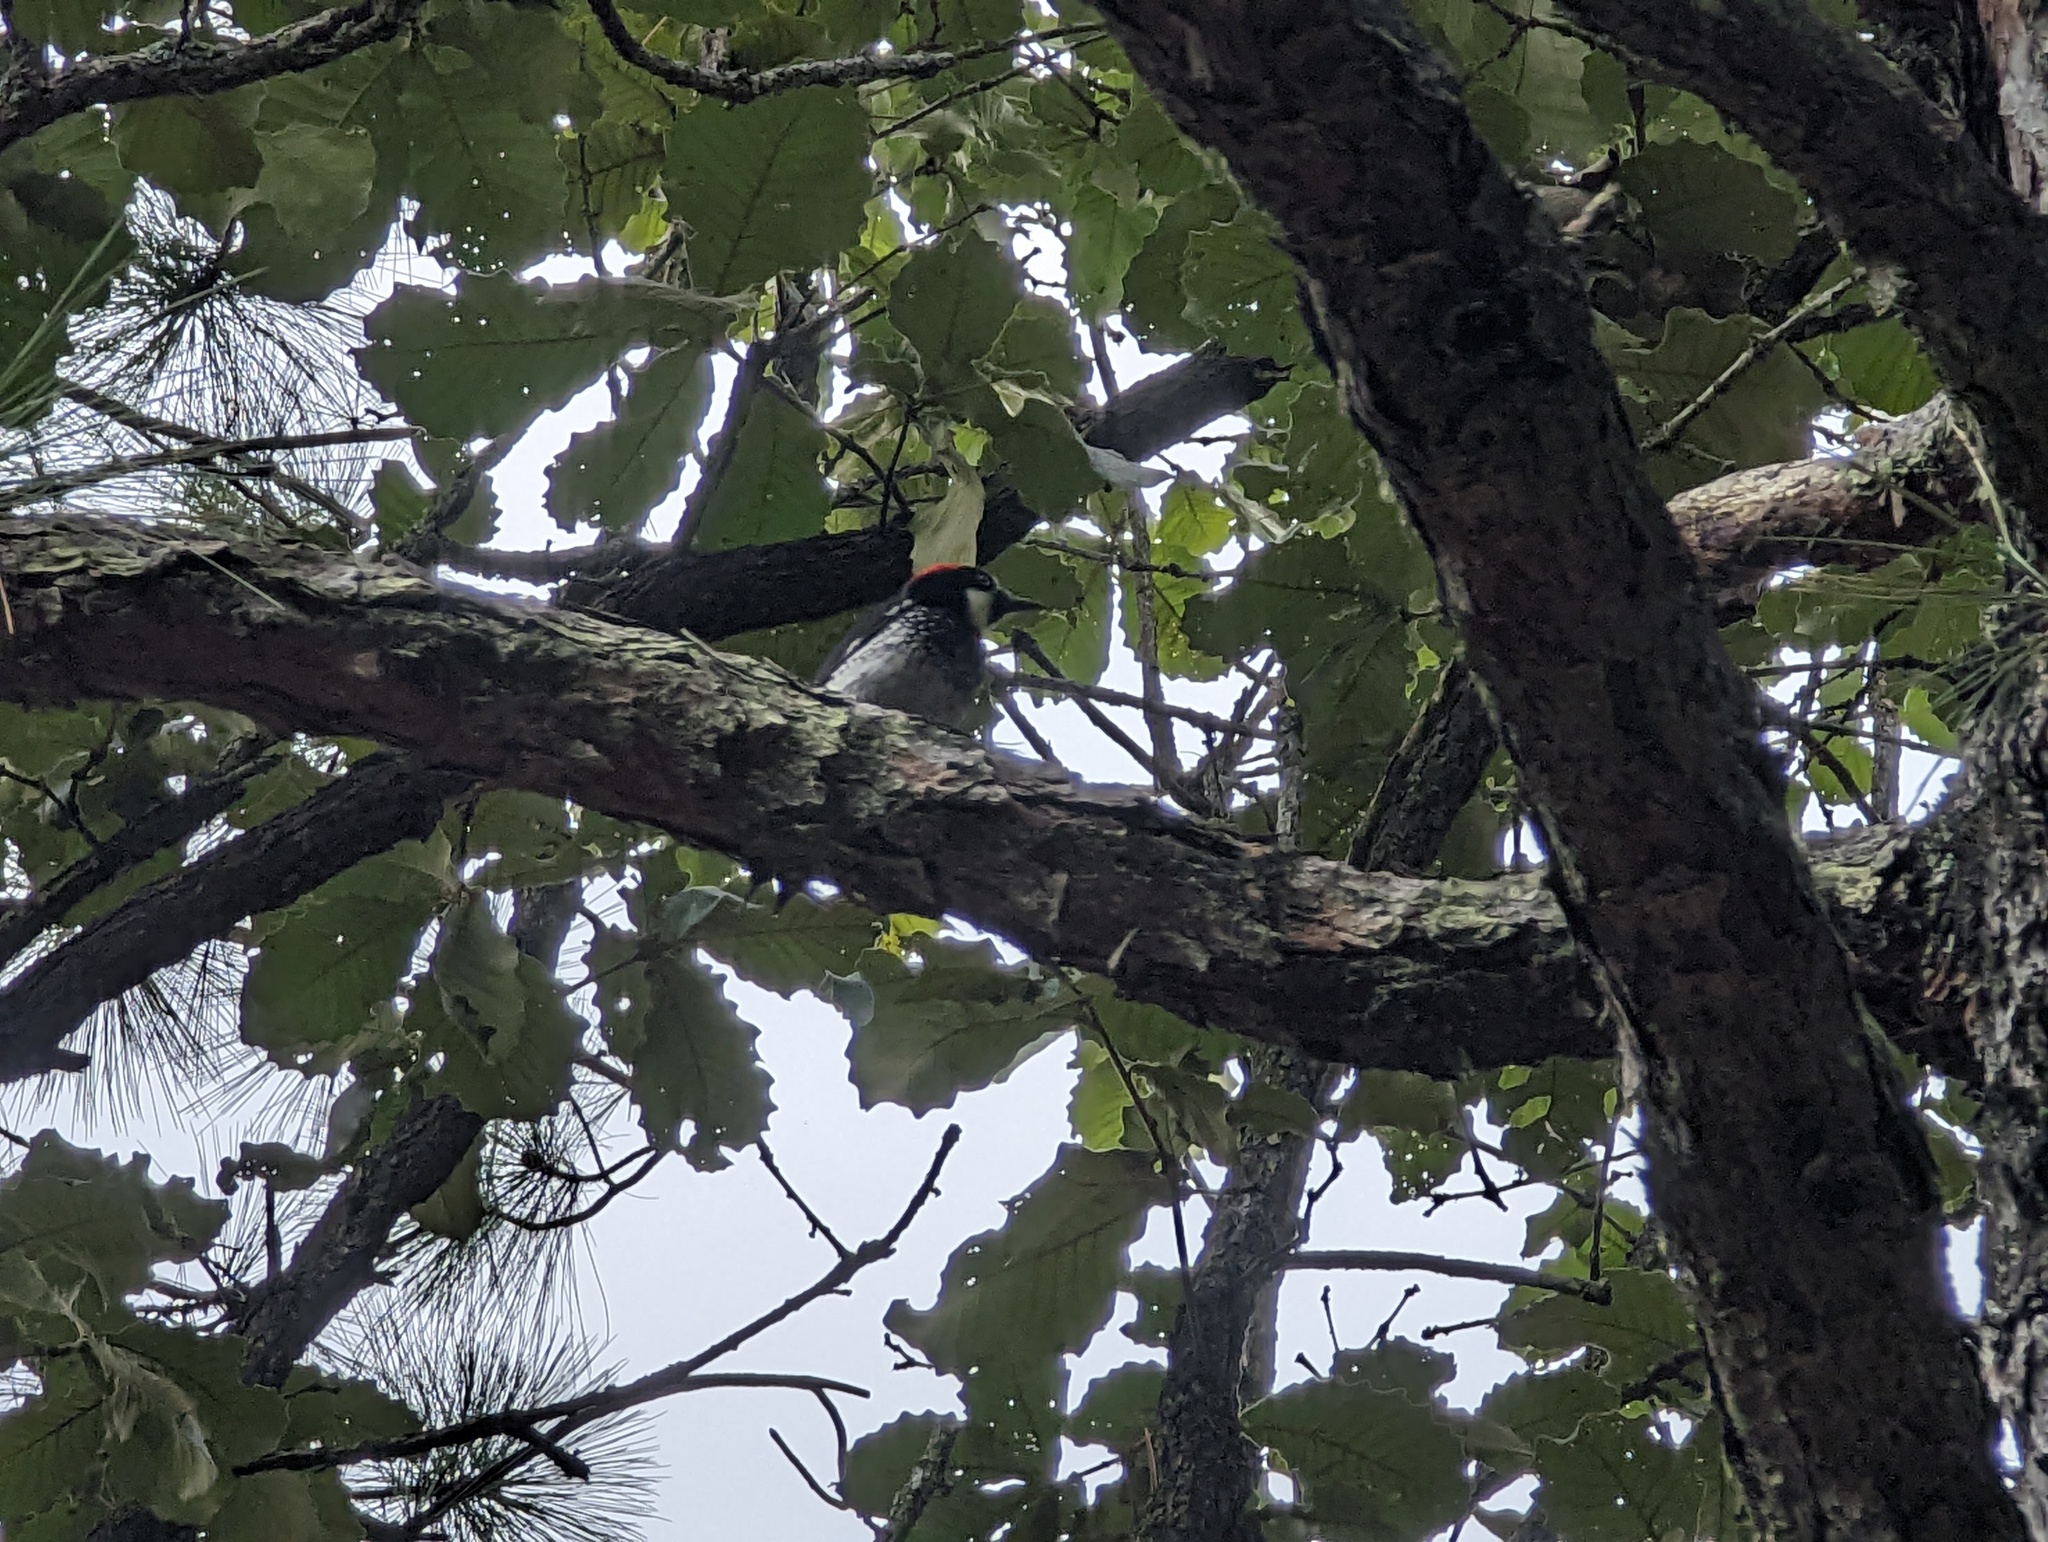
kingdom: Animalia
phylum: Chordata
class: Aves
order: Piciformes
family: Picidae
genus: Melanerpes
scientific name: Melanerpes formicivorus
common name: Acorn woodpecker
